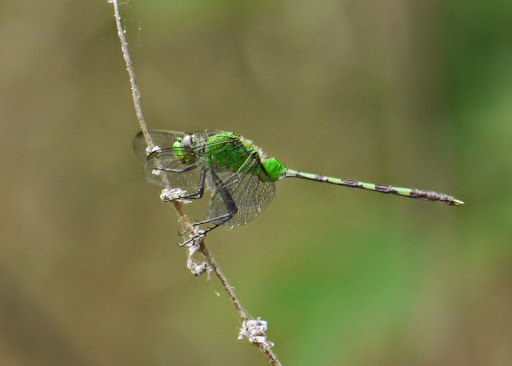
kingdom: Animalia
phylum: Arthropoda
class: Insecta
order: Odonata
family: Libellulidae
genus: Erythemis
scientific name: Erythemis vesiculosa
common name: Great pondhawk
